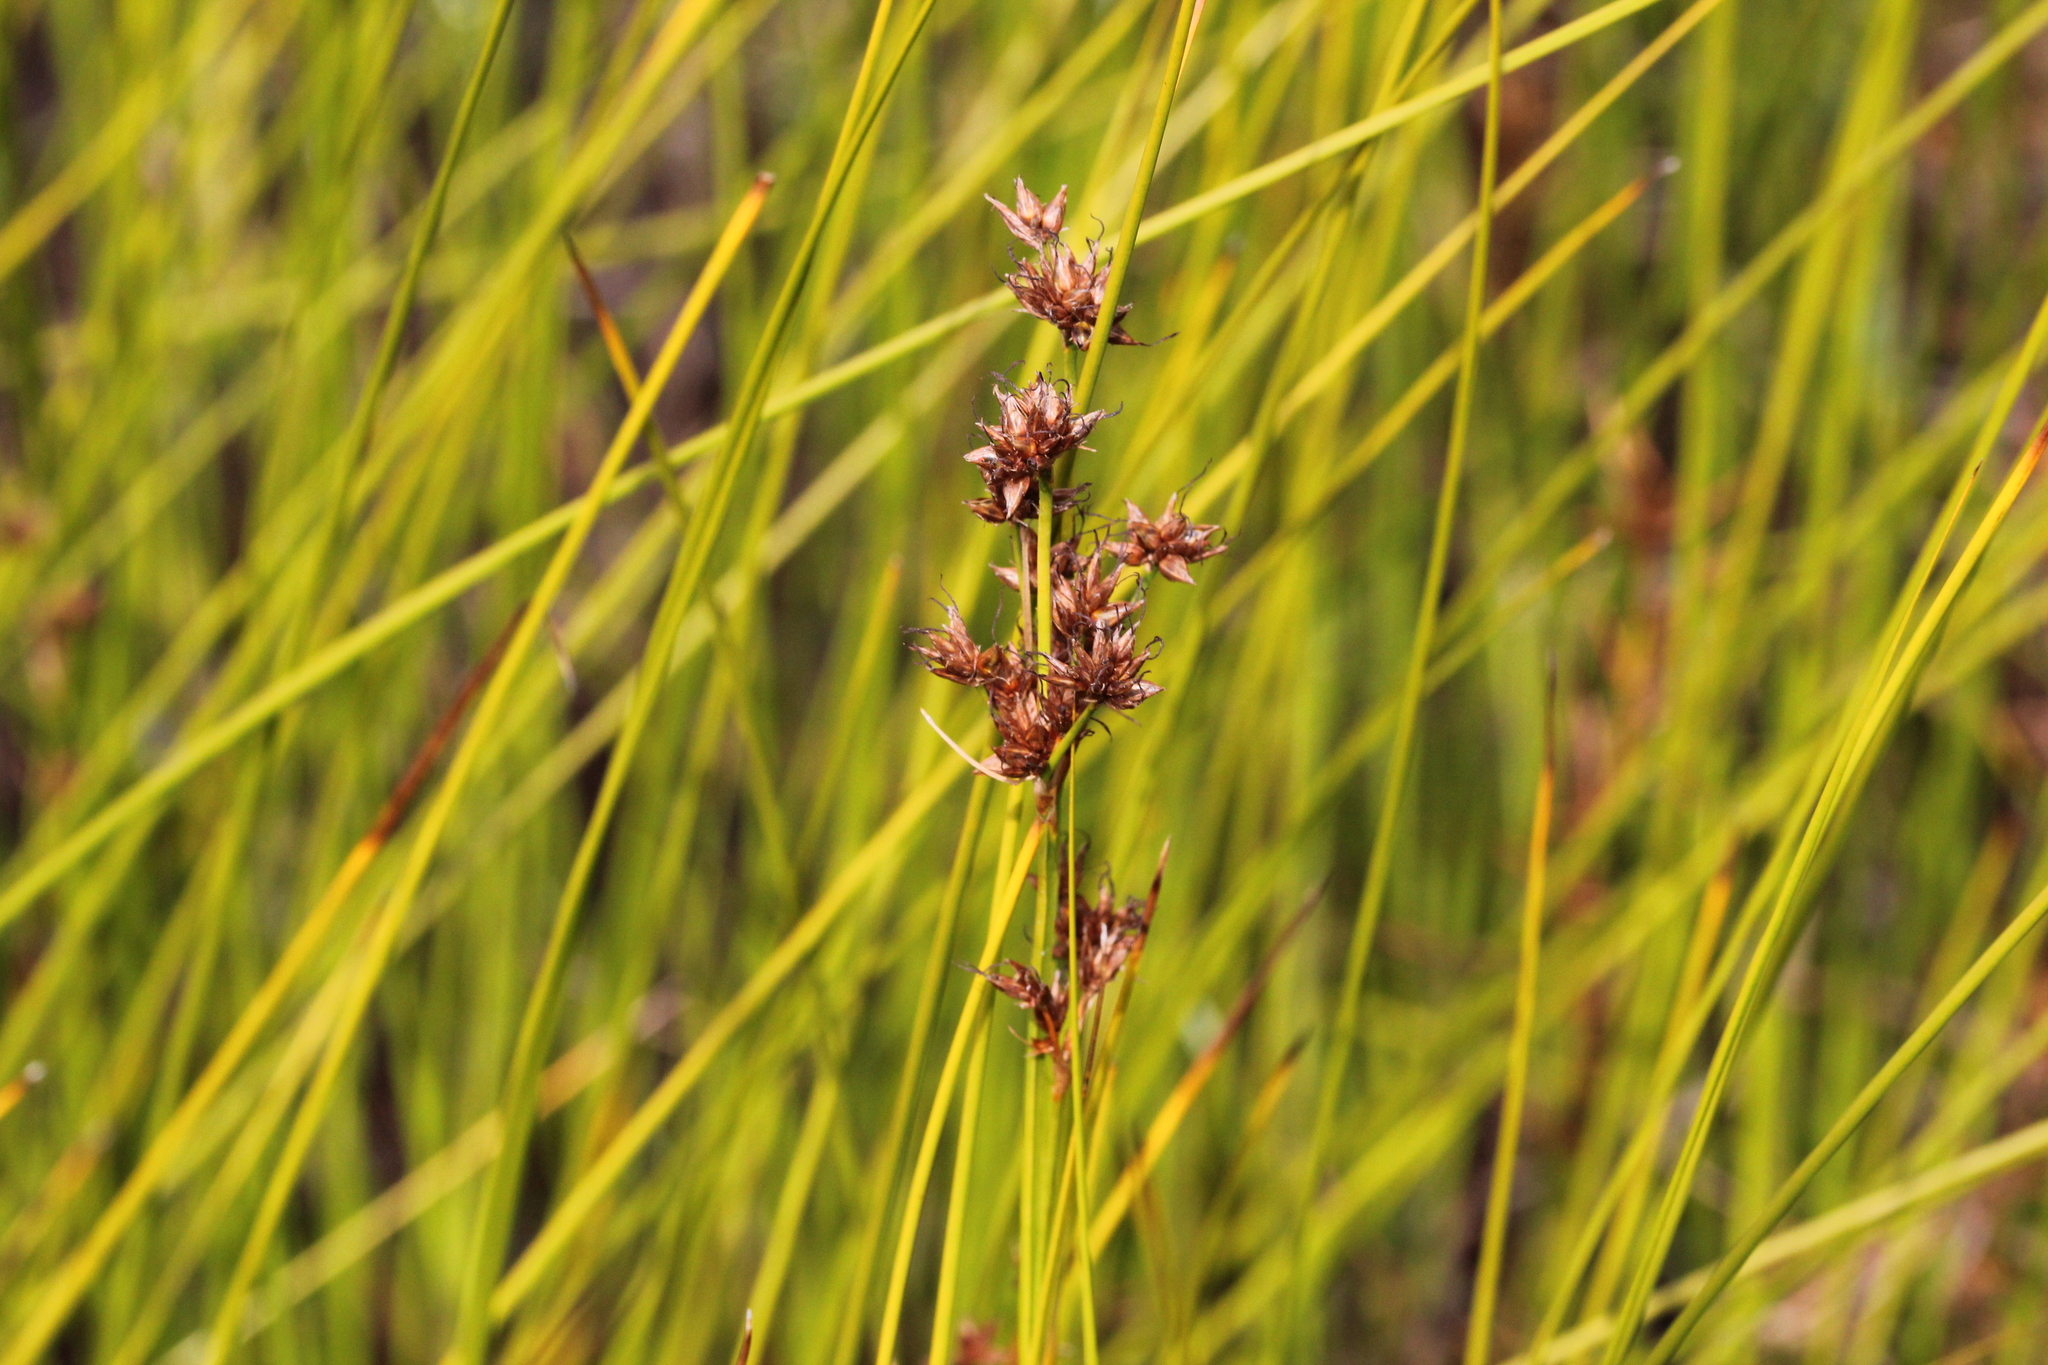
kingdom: Plantae
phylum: Tracheophyta
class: Liliopsida
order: Poales
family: Cyperaceae
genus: Cladium
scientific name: Cladium mariscoides
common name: Smooth sawgrass
